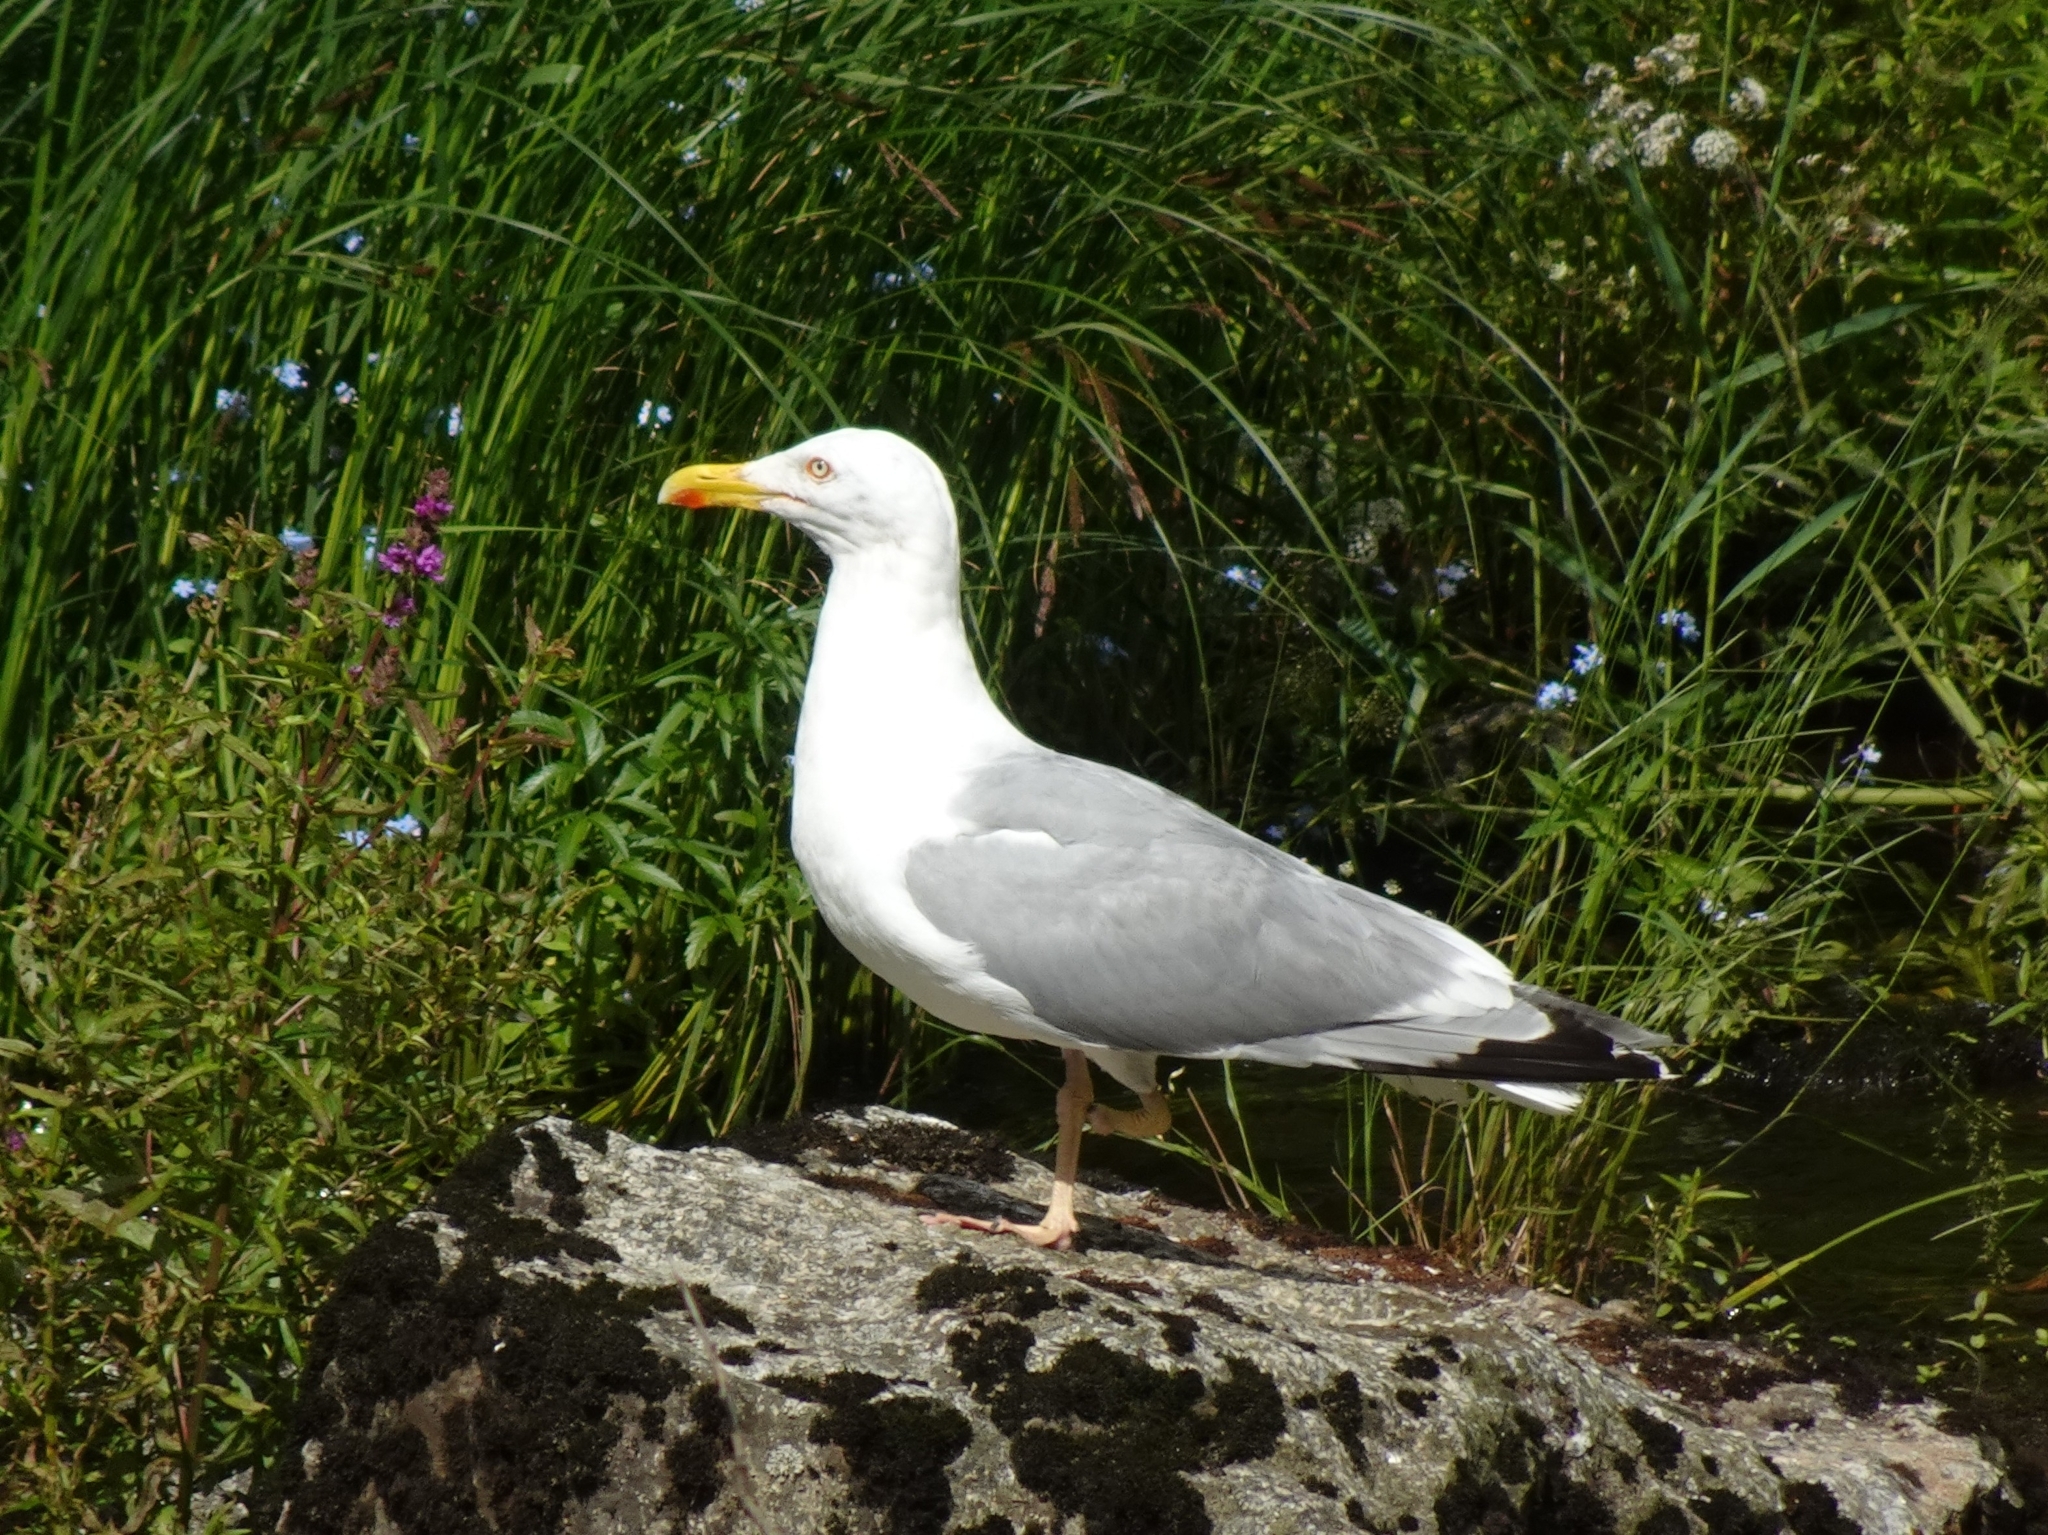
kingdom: Animalia
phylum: Chordata
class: Aves
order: Charadriiformes
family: Laridae
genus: Larus
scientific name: Larus argentatus
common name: Herring gull
